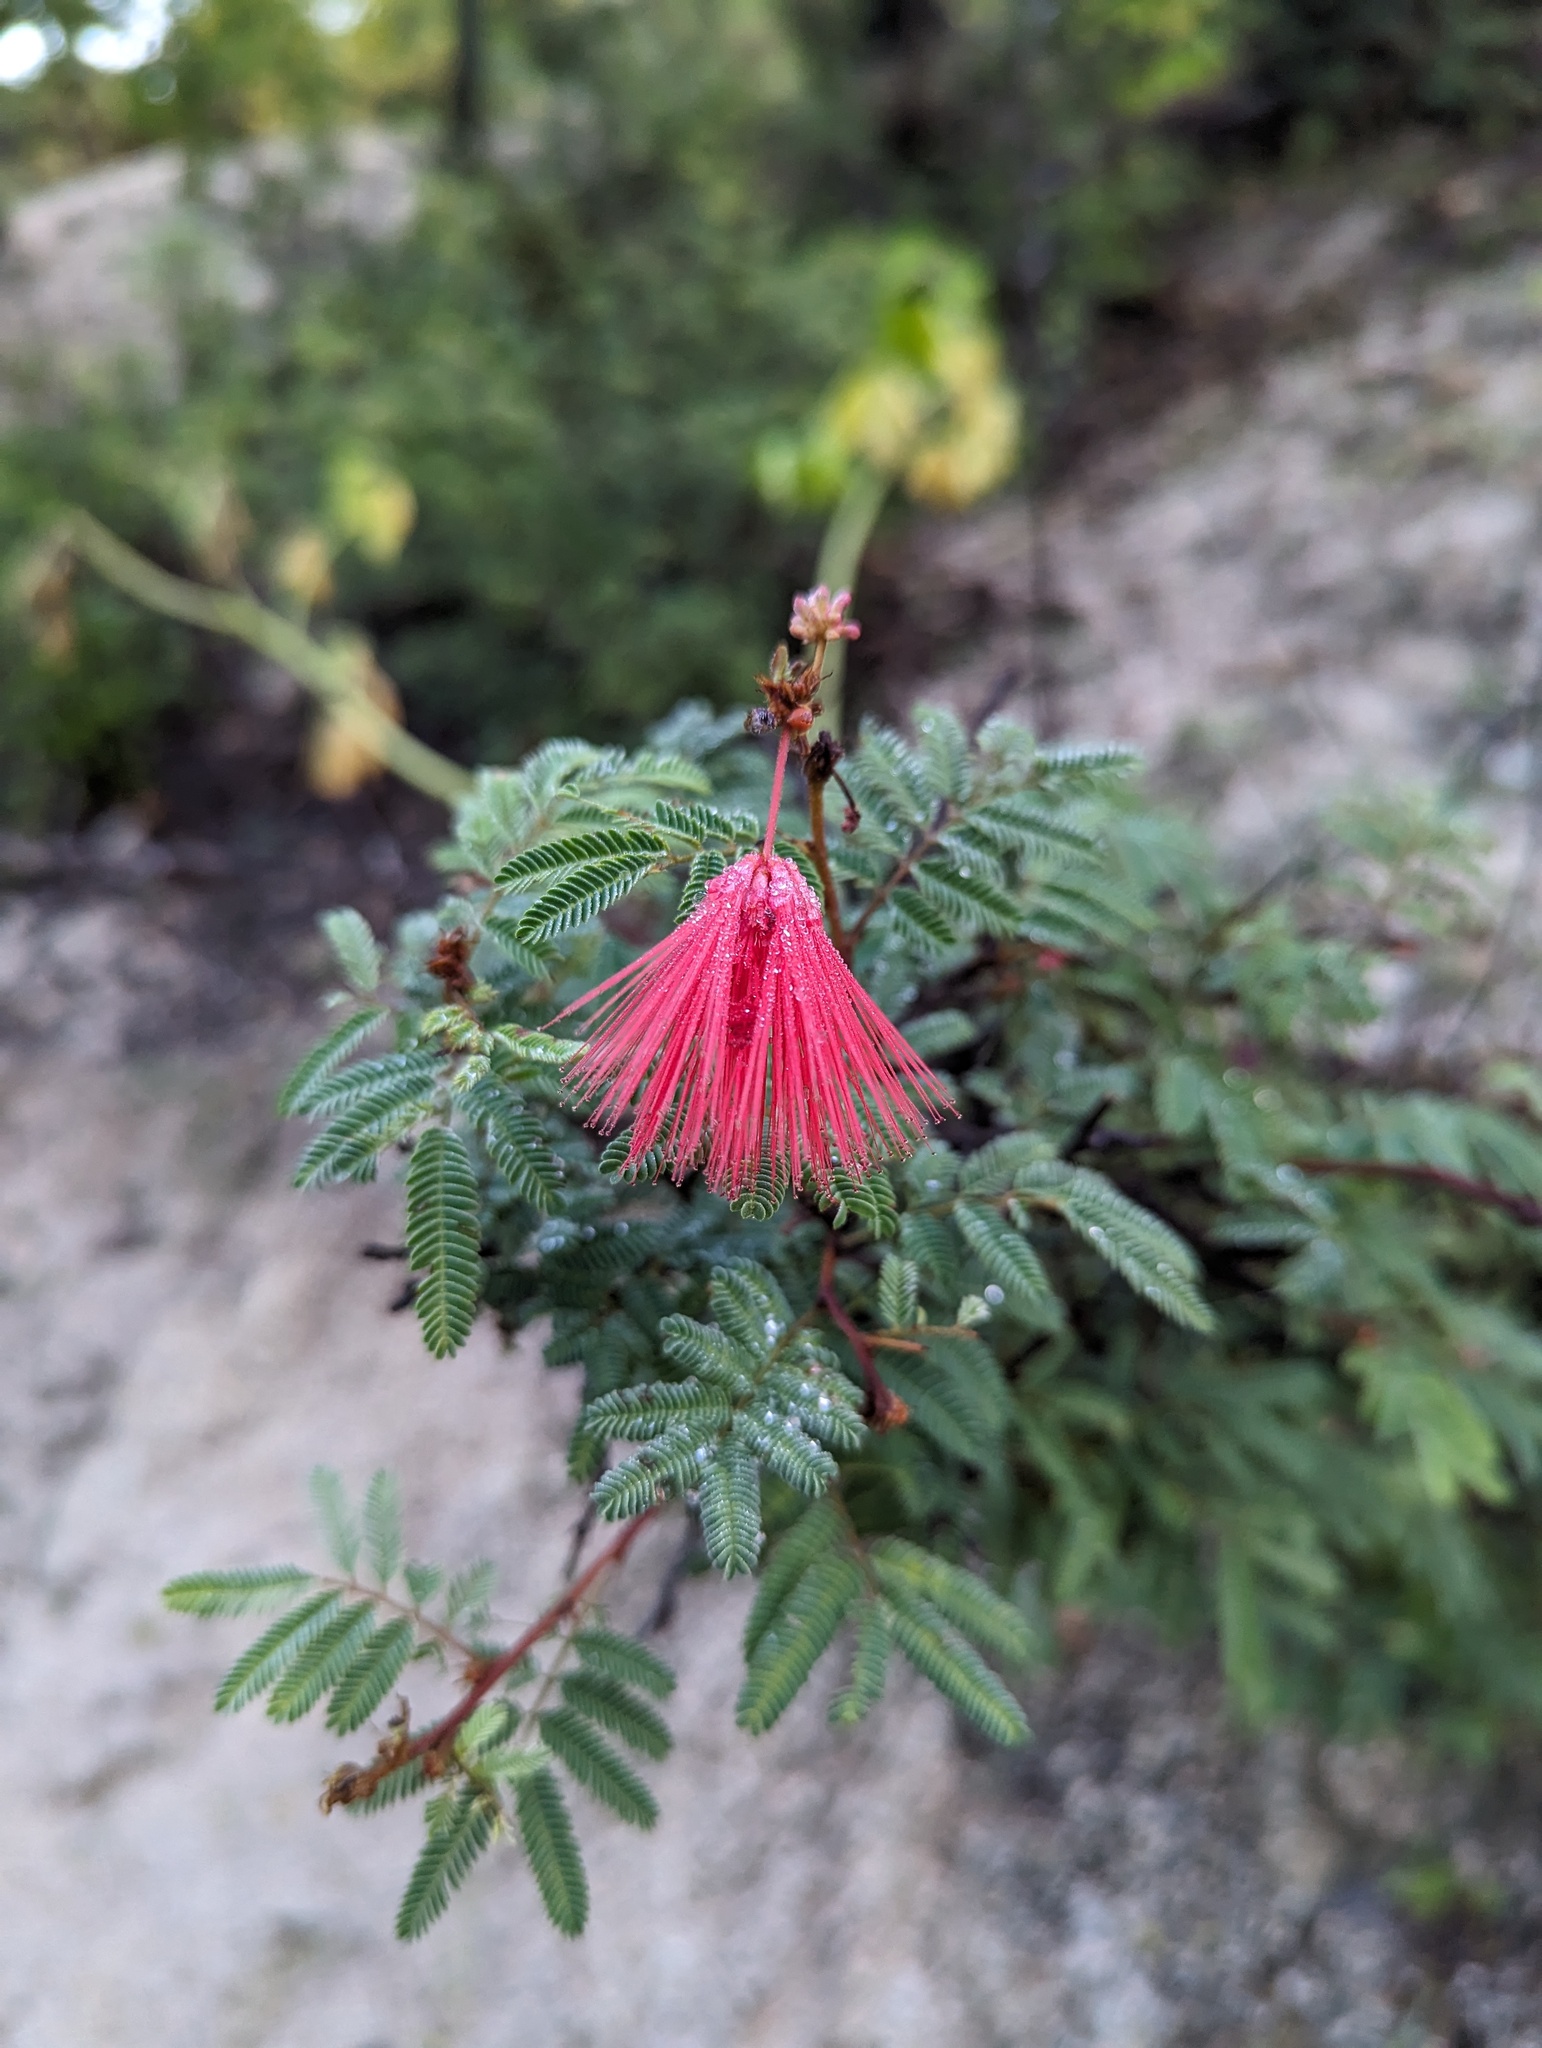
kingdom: Plantae
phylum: Tracheophyta
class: Magnoliopsida
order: Fabales
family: Fabaceae
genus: Calliandra
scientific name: Calliandra peninsularis
